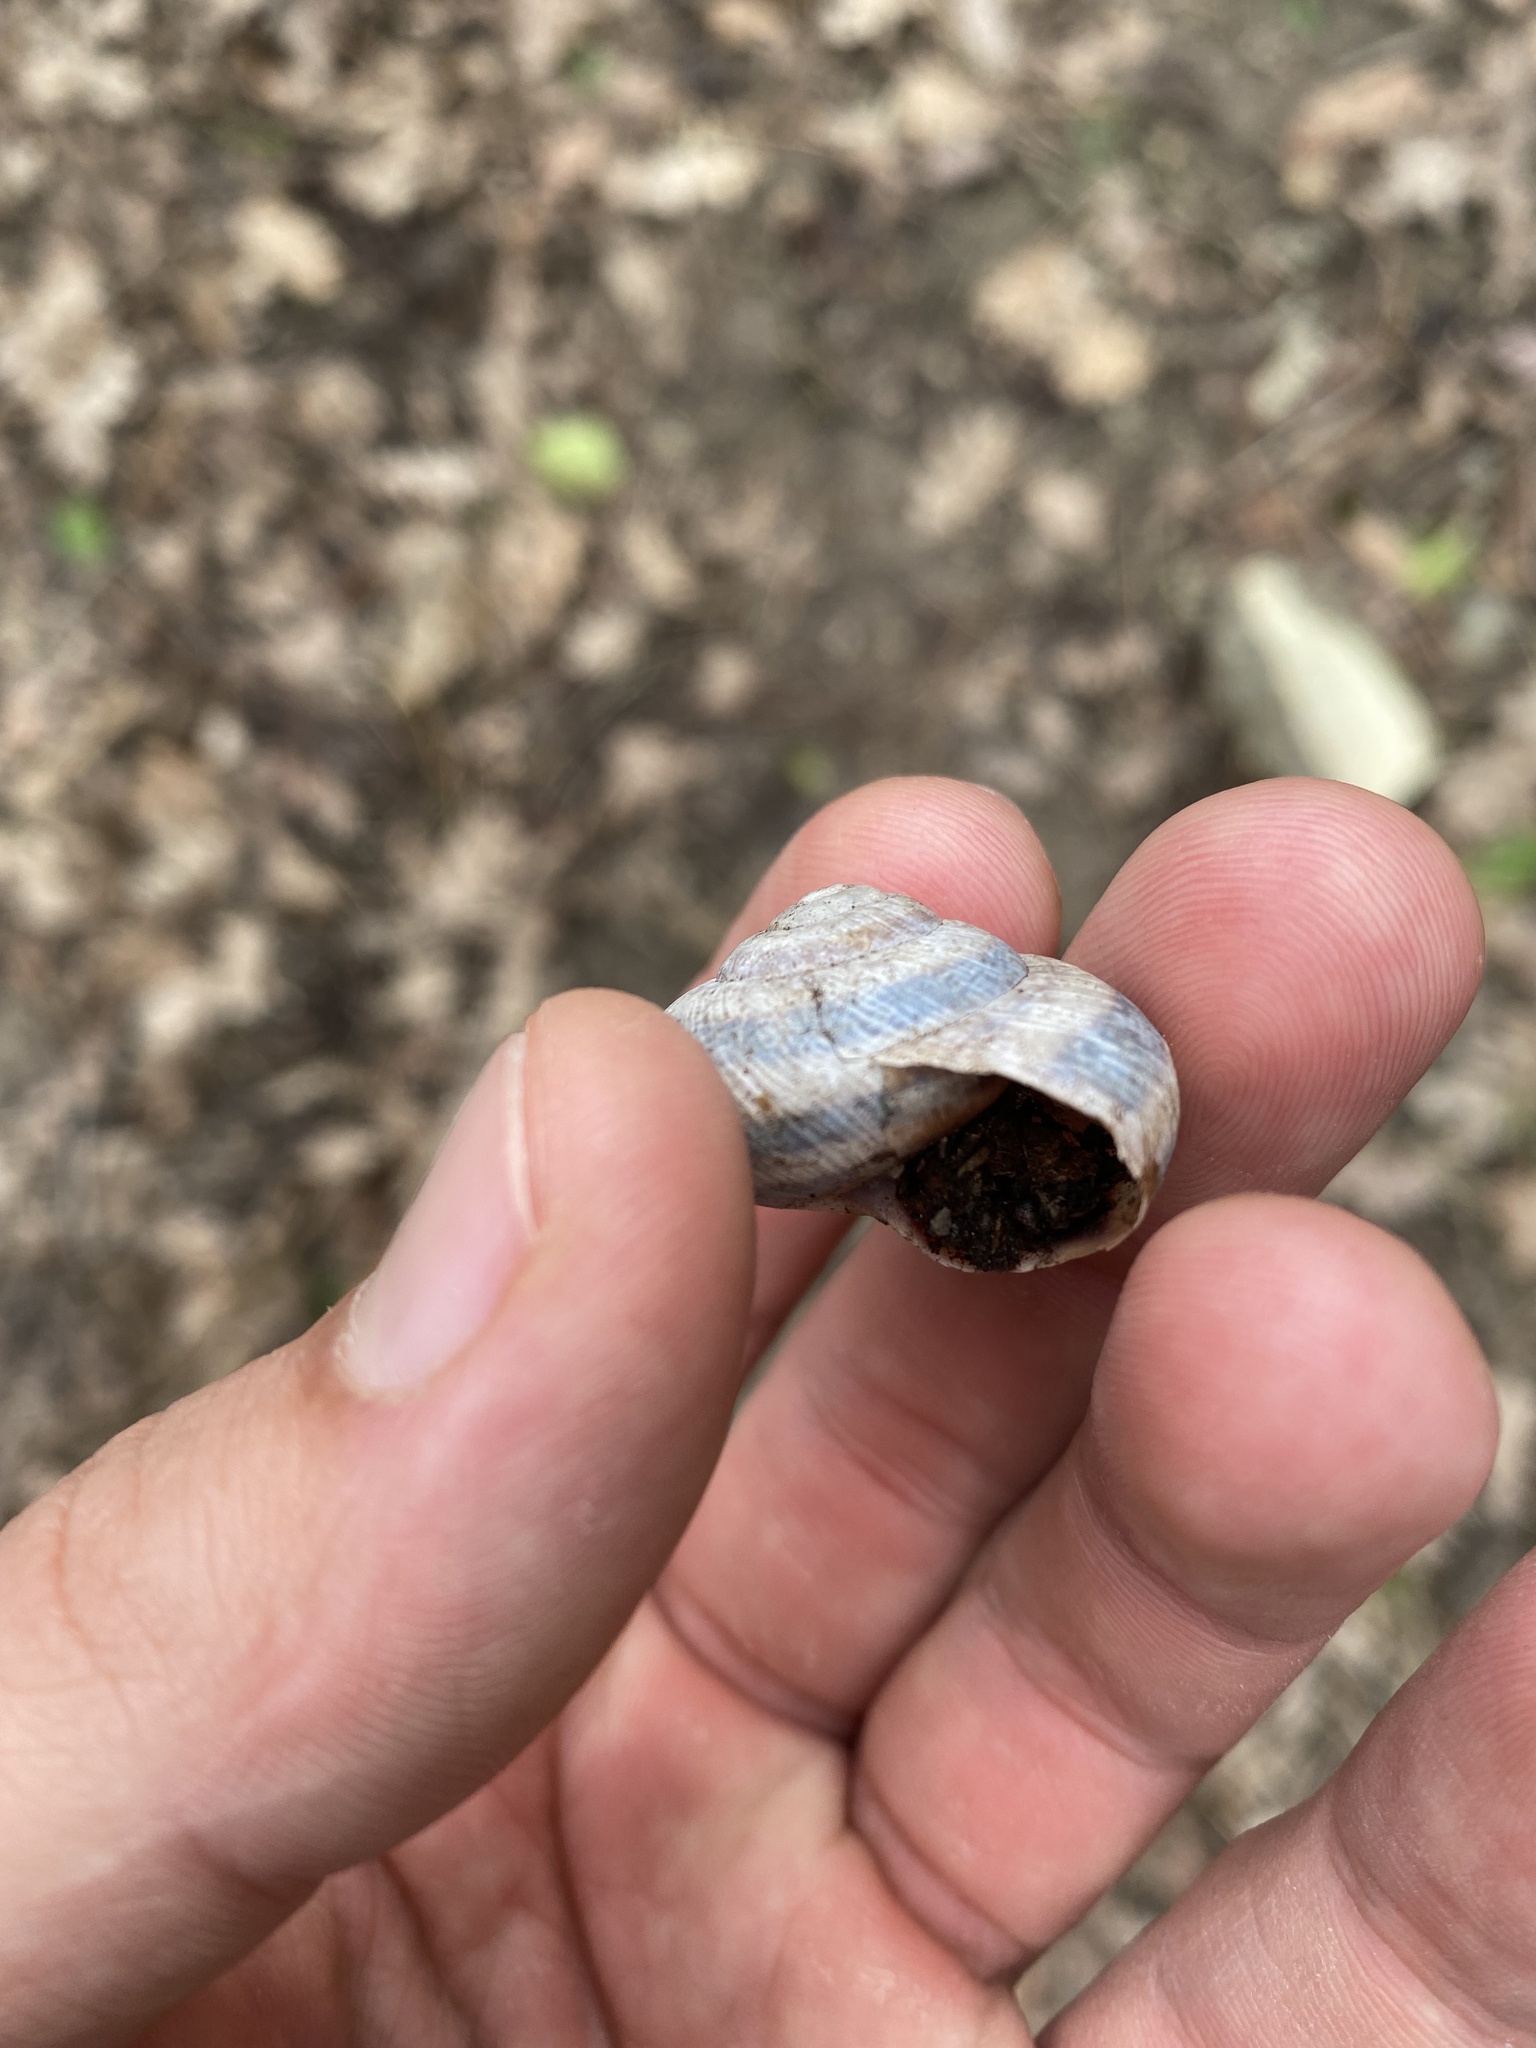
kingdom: Animalia
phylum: Mollusca
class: Gastropoda
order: Stylommatophora
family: Helicidae
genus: Caucasotachea
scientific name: Caucasotachea atrolabiata
